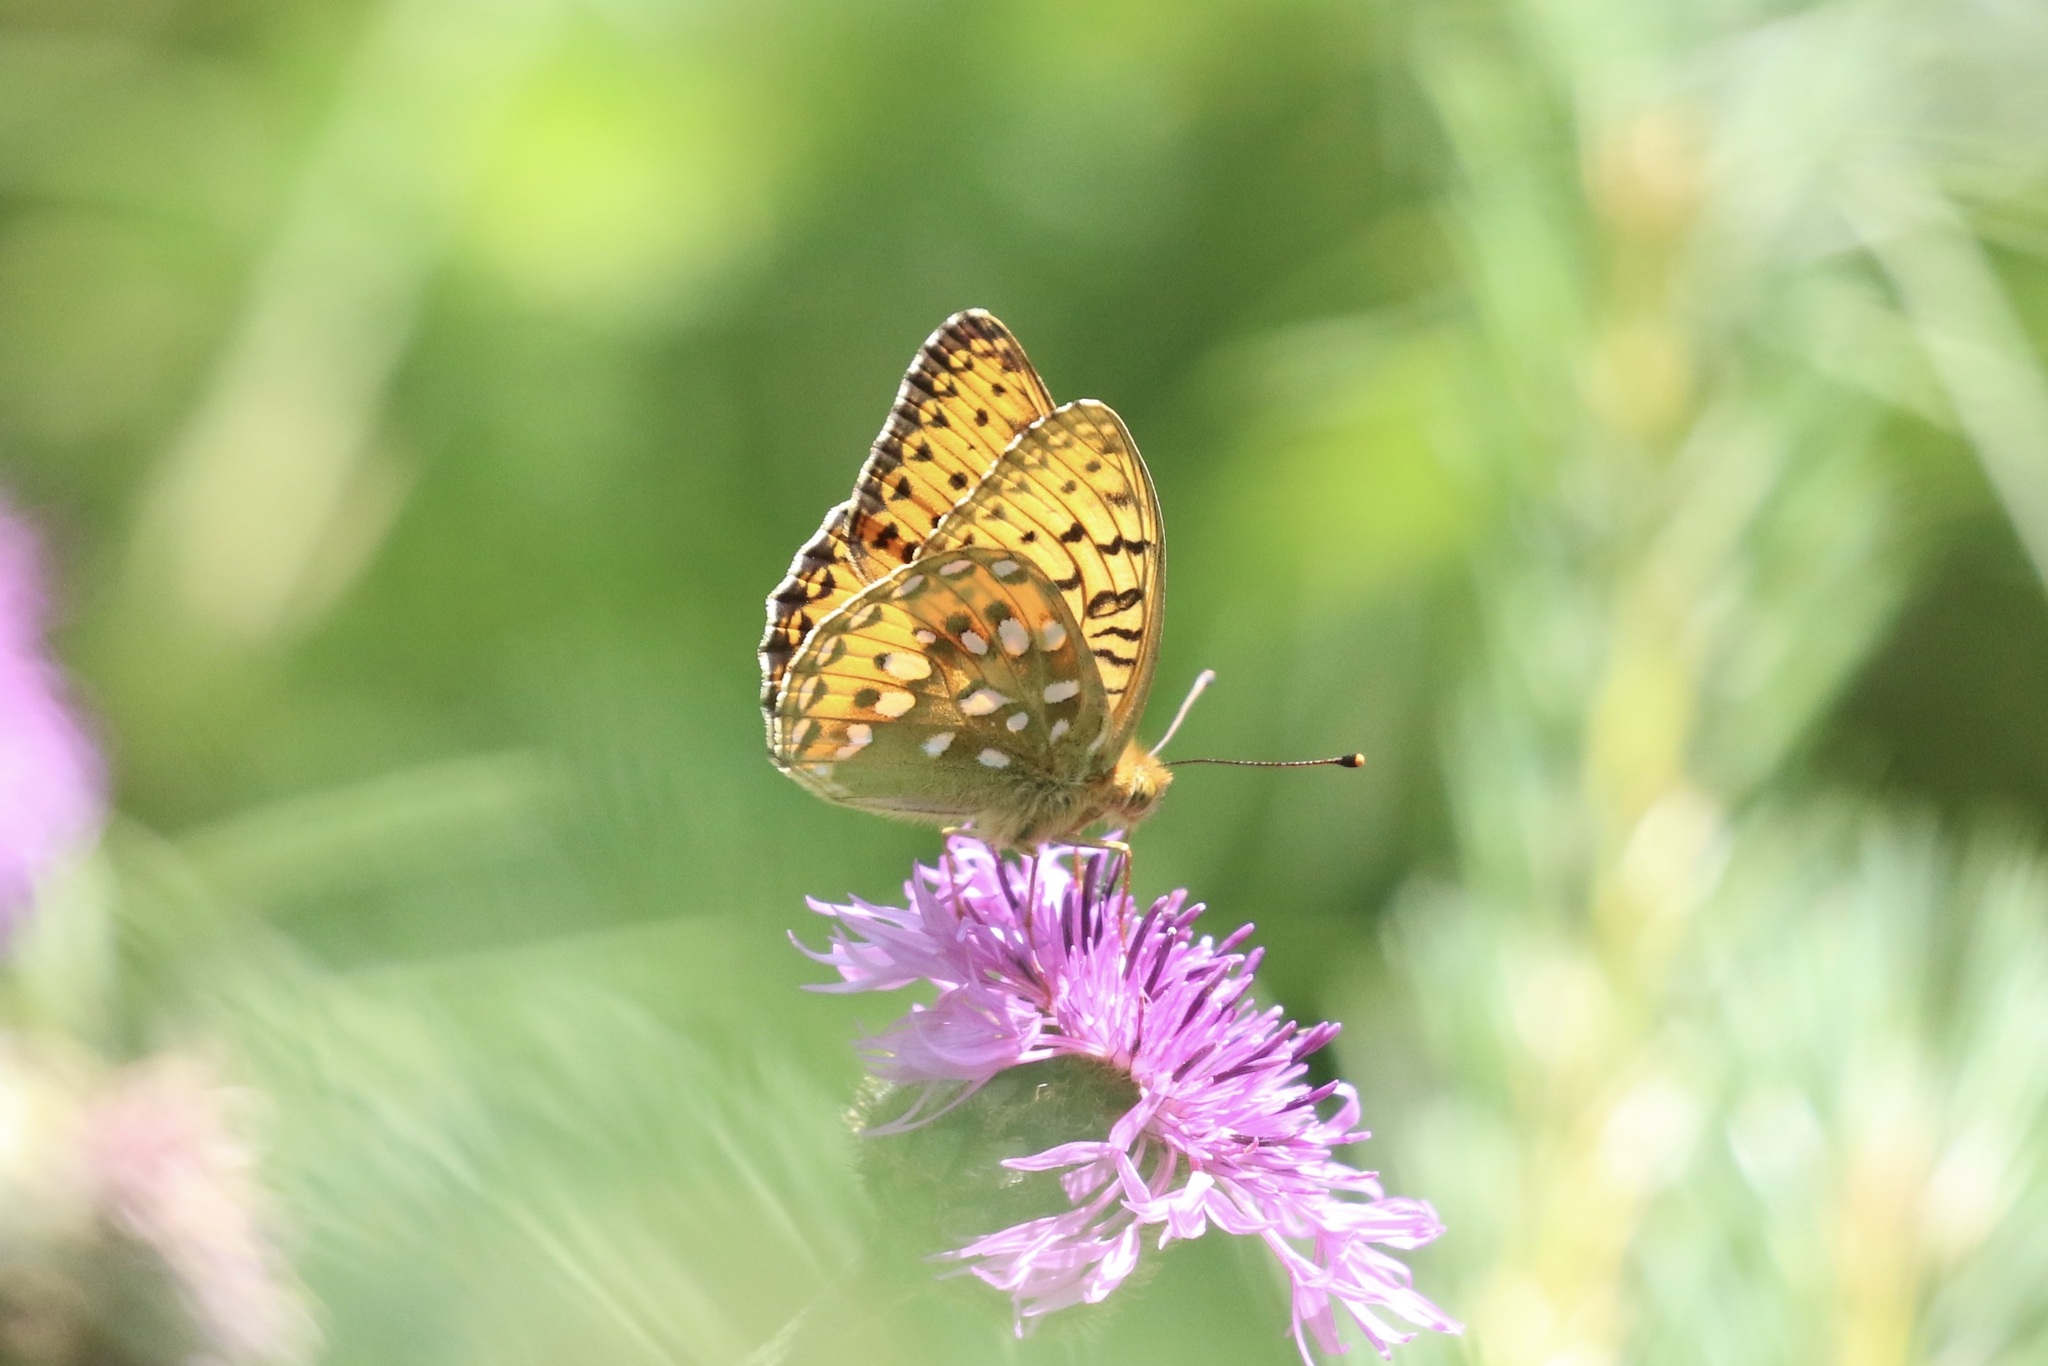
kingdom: Animalia
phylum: Arthropoda
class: Insecta
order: Lepidoptera
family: Nymphalidae
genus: Speyeria
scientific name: Speyeria aglaja
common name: Dark green fritillary
